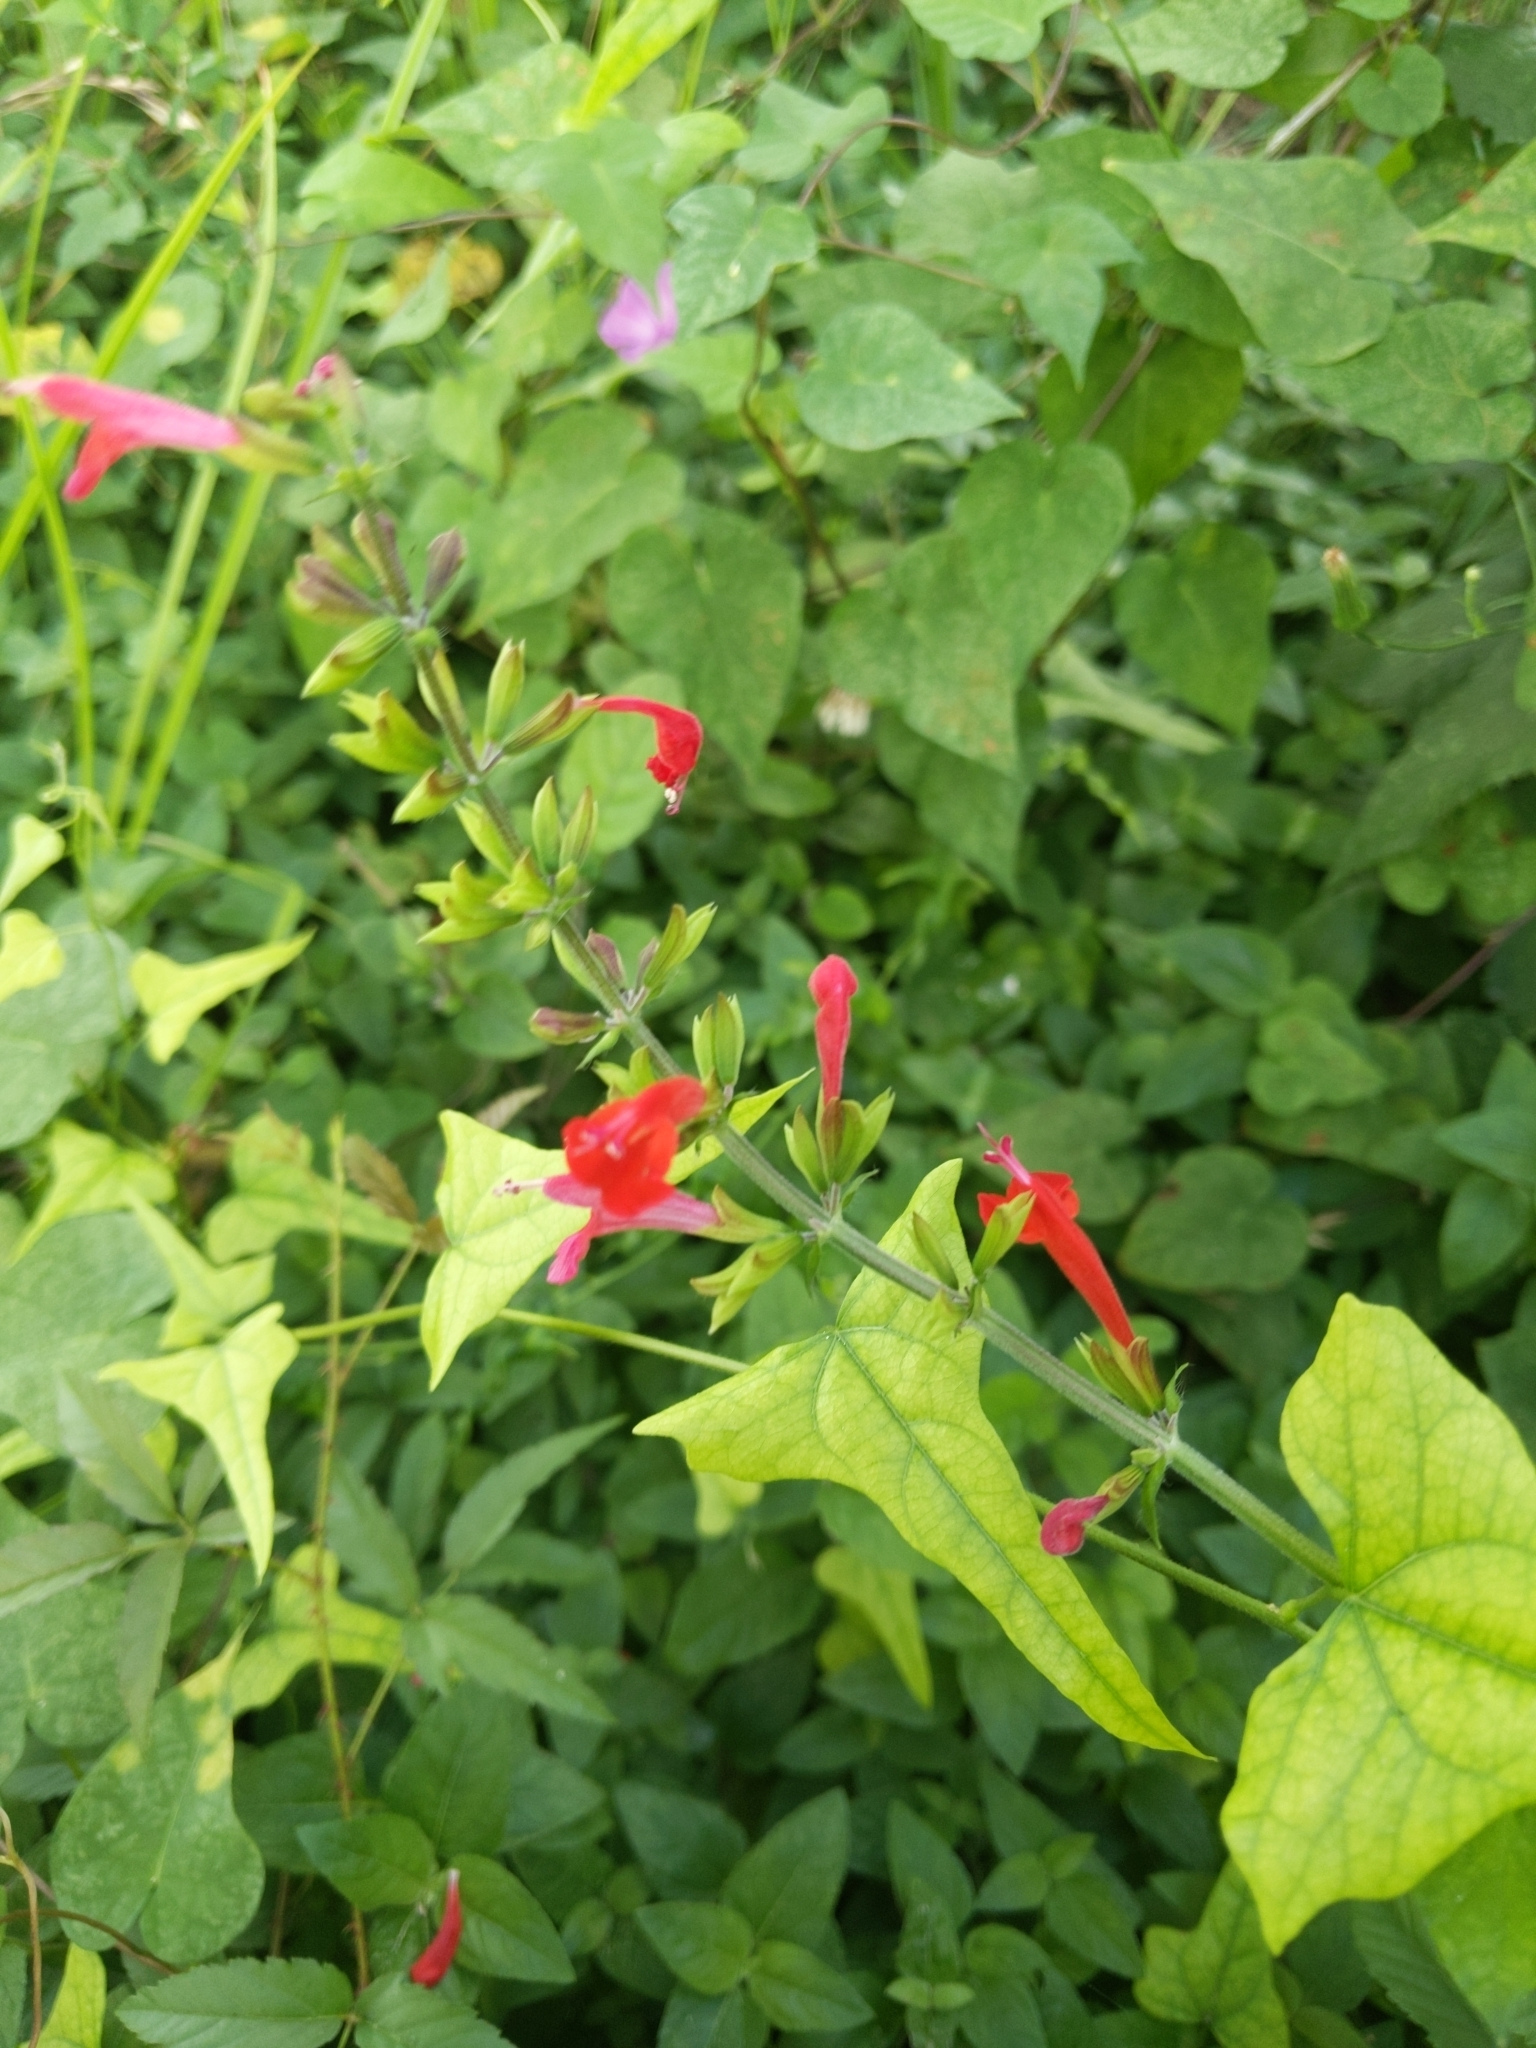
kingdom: Plantae
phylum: Tracheophyta
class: Magnoliopsida
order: Lamiales
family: Lamiaceae
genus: Salvia
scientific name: Salvia coccinea
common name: Blood sage
